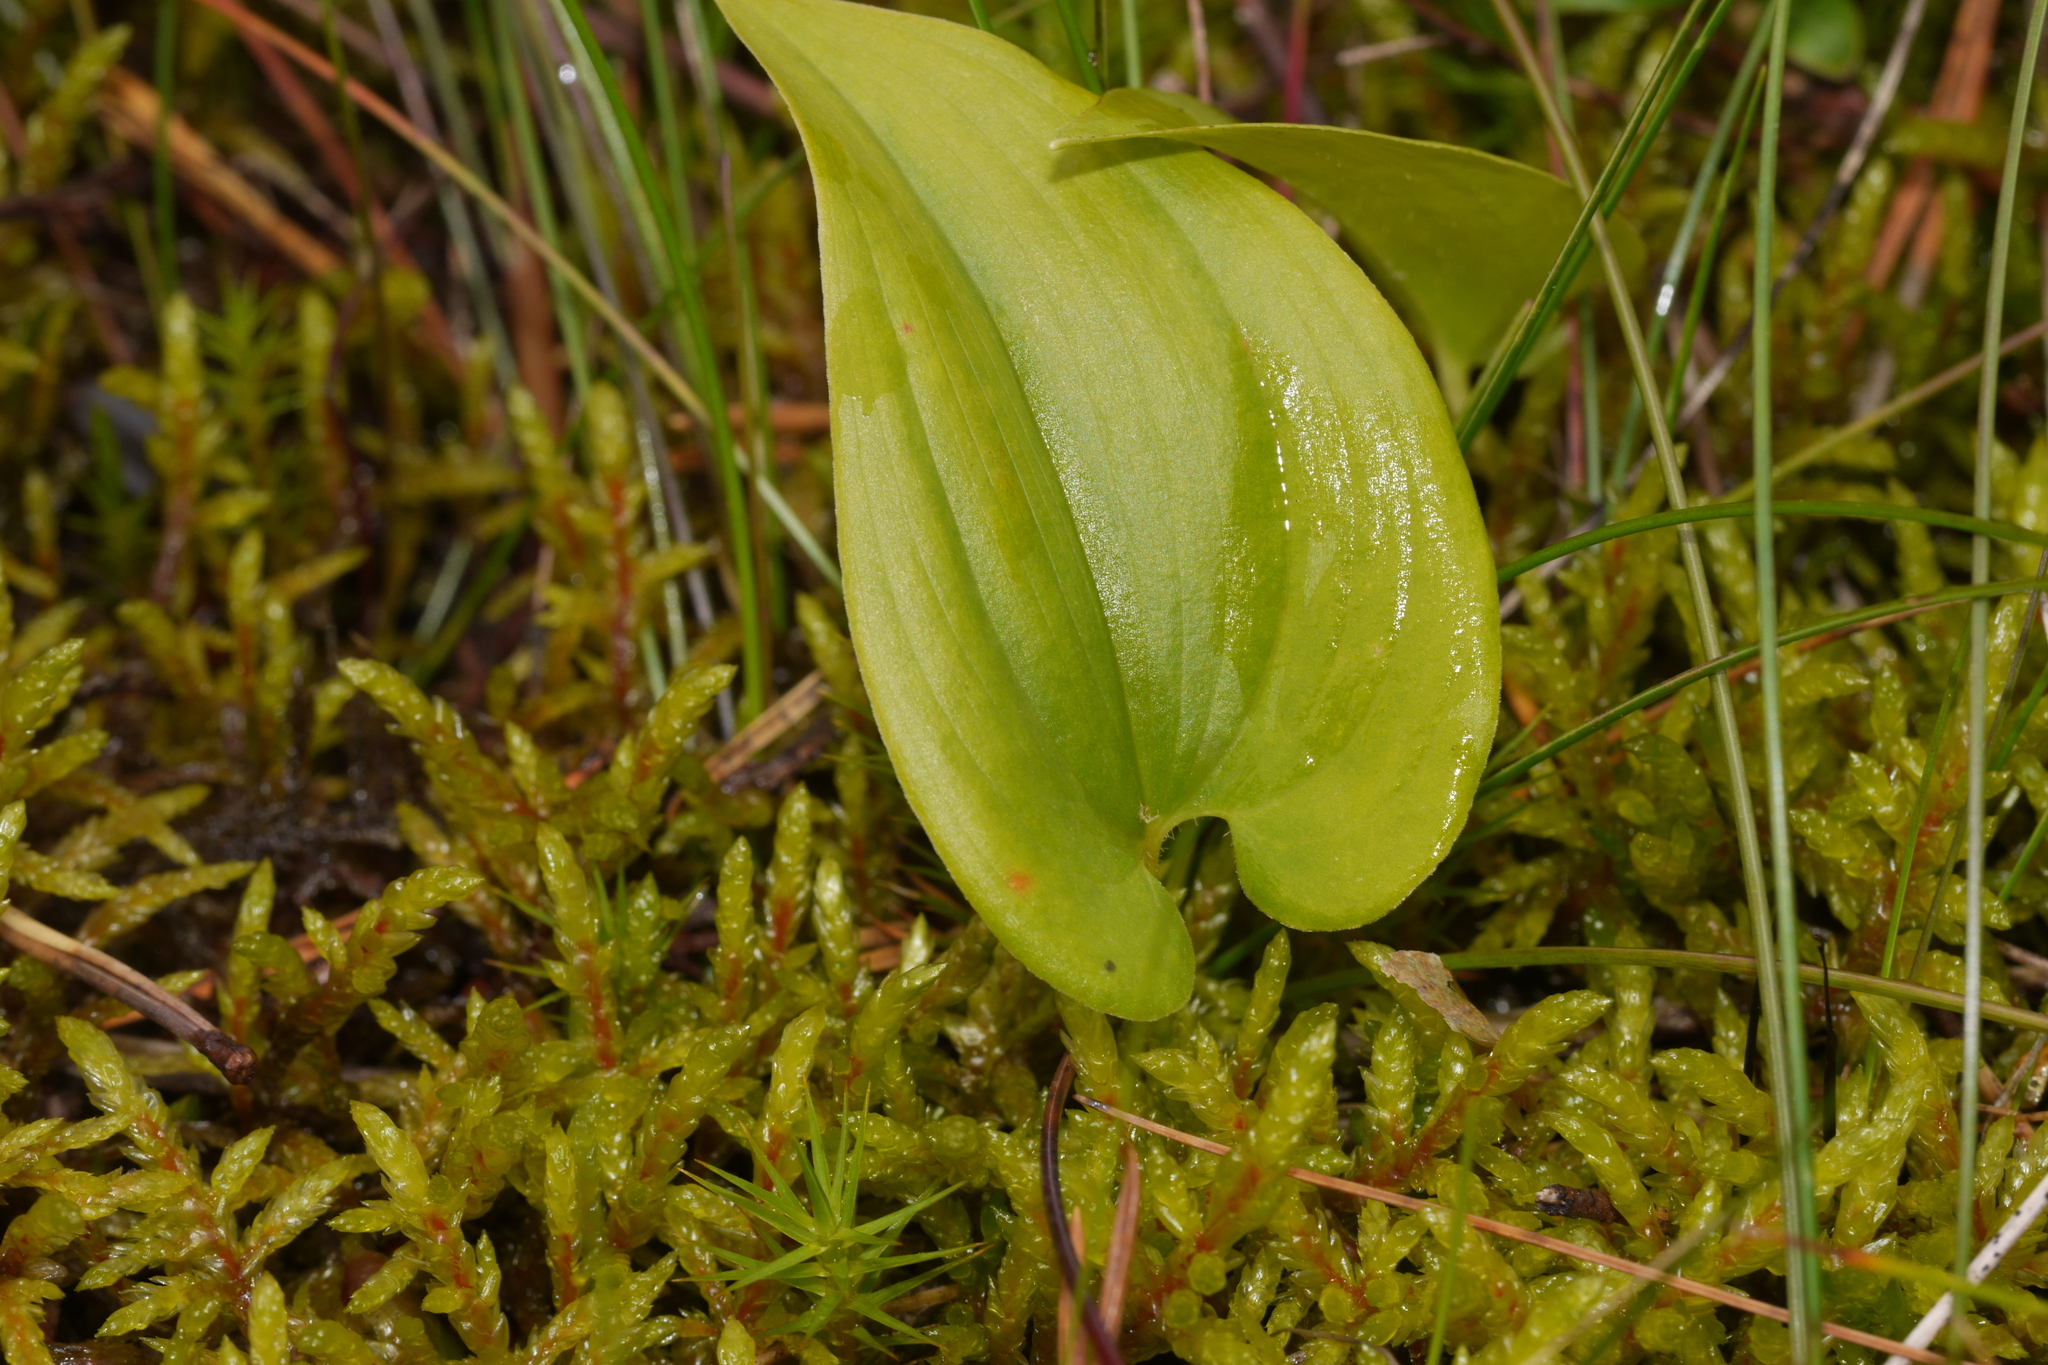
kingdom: Plantae
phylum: Tracheophyta
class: Liliopsida
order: Asparagales
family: Asparagaceae
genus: Maianthemum
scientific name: Maianthemum bifolium
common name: May lily
